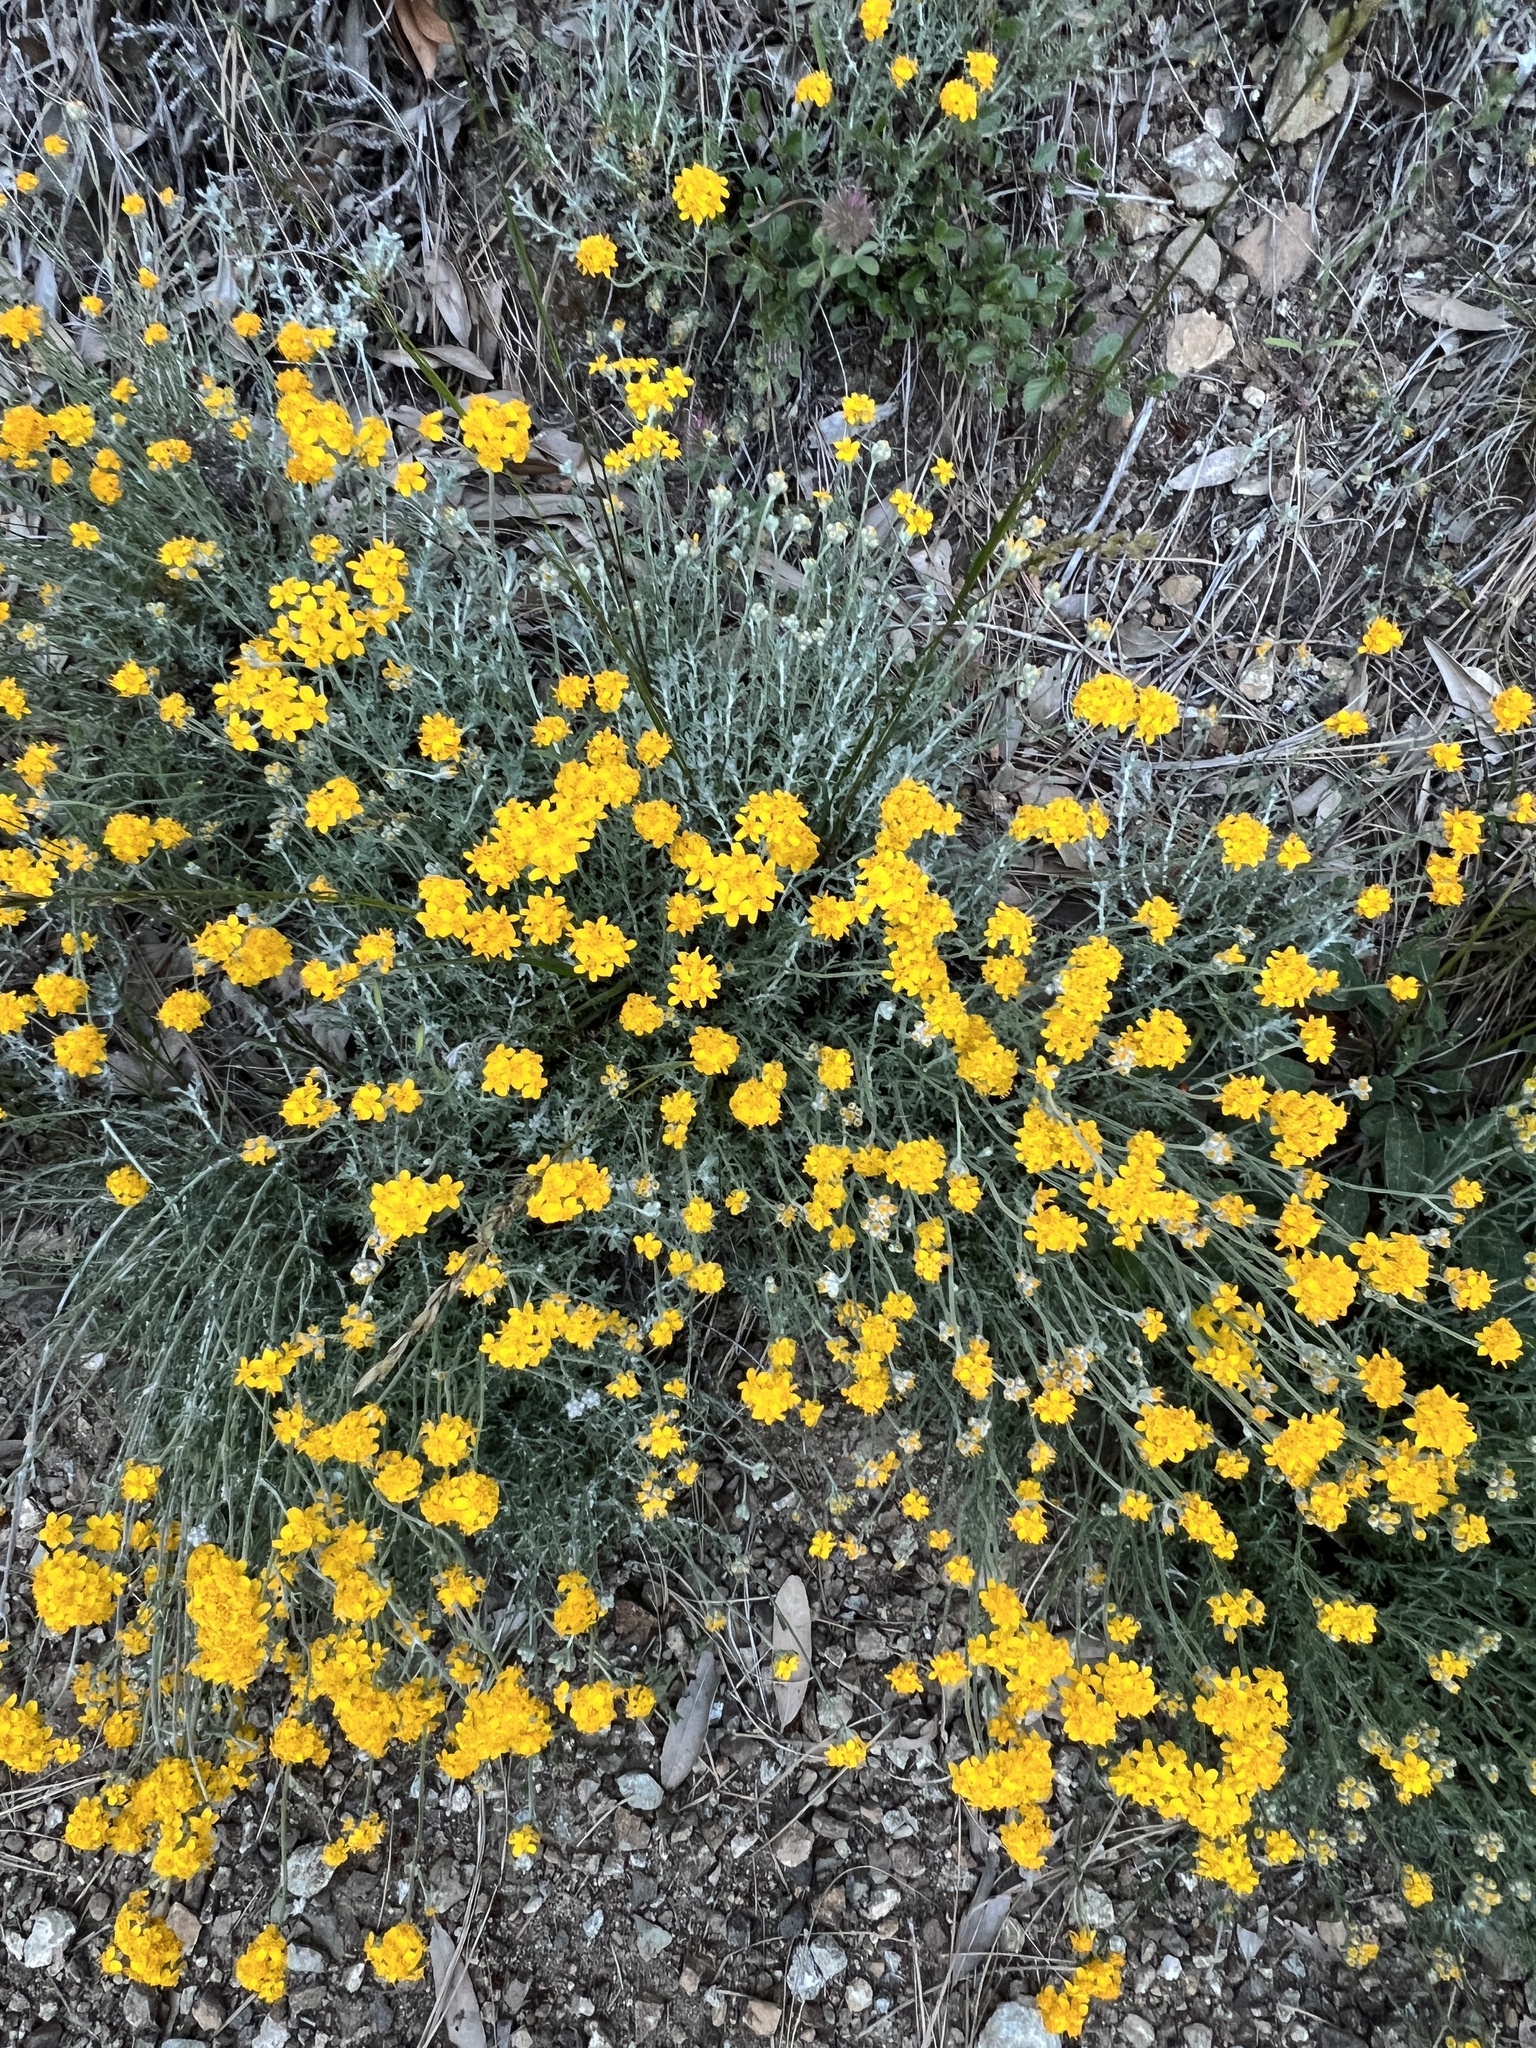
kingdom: Plantae
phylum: Tracheophyta
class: Magnoliopsida
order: Asterales
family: Asteraceae
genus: Eriophyllum
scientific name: Eriophyllum confertiflorum
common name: Golden-yarrow
